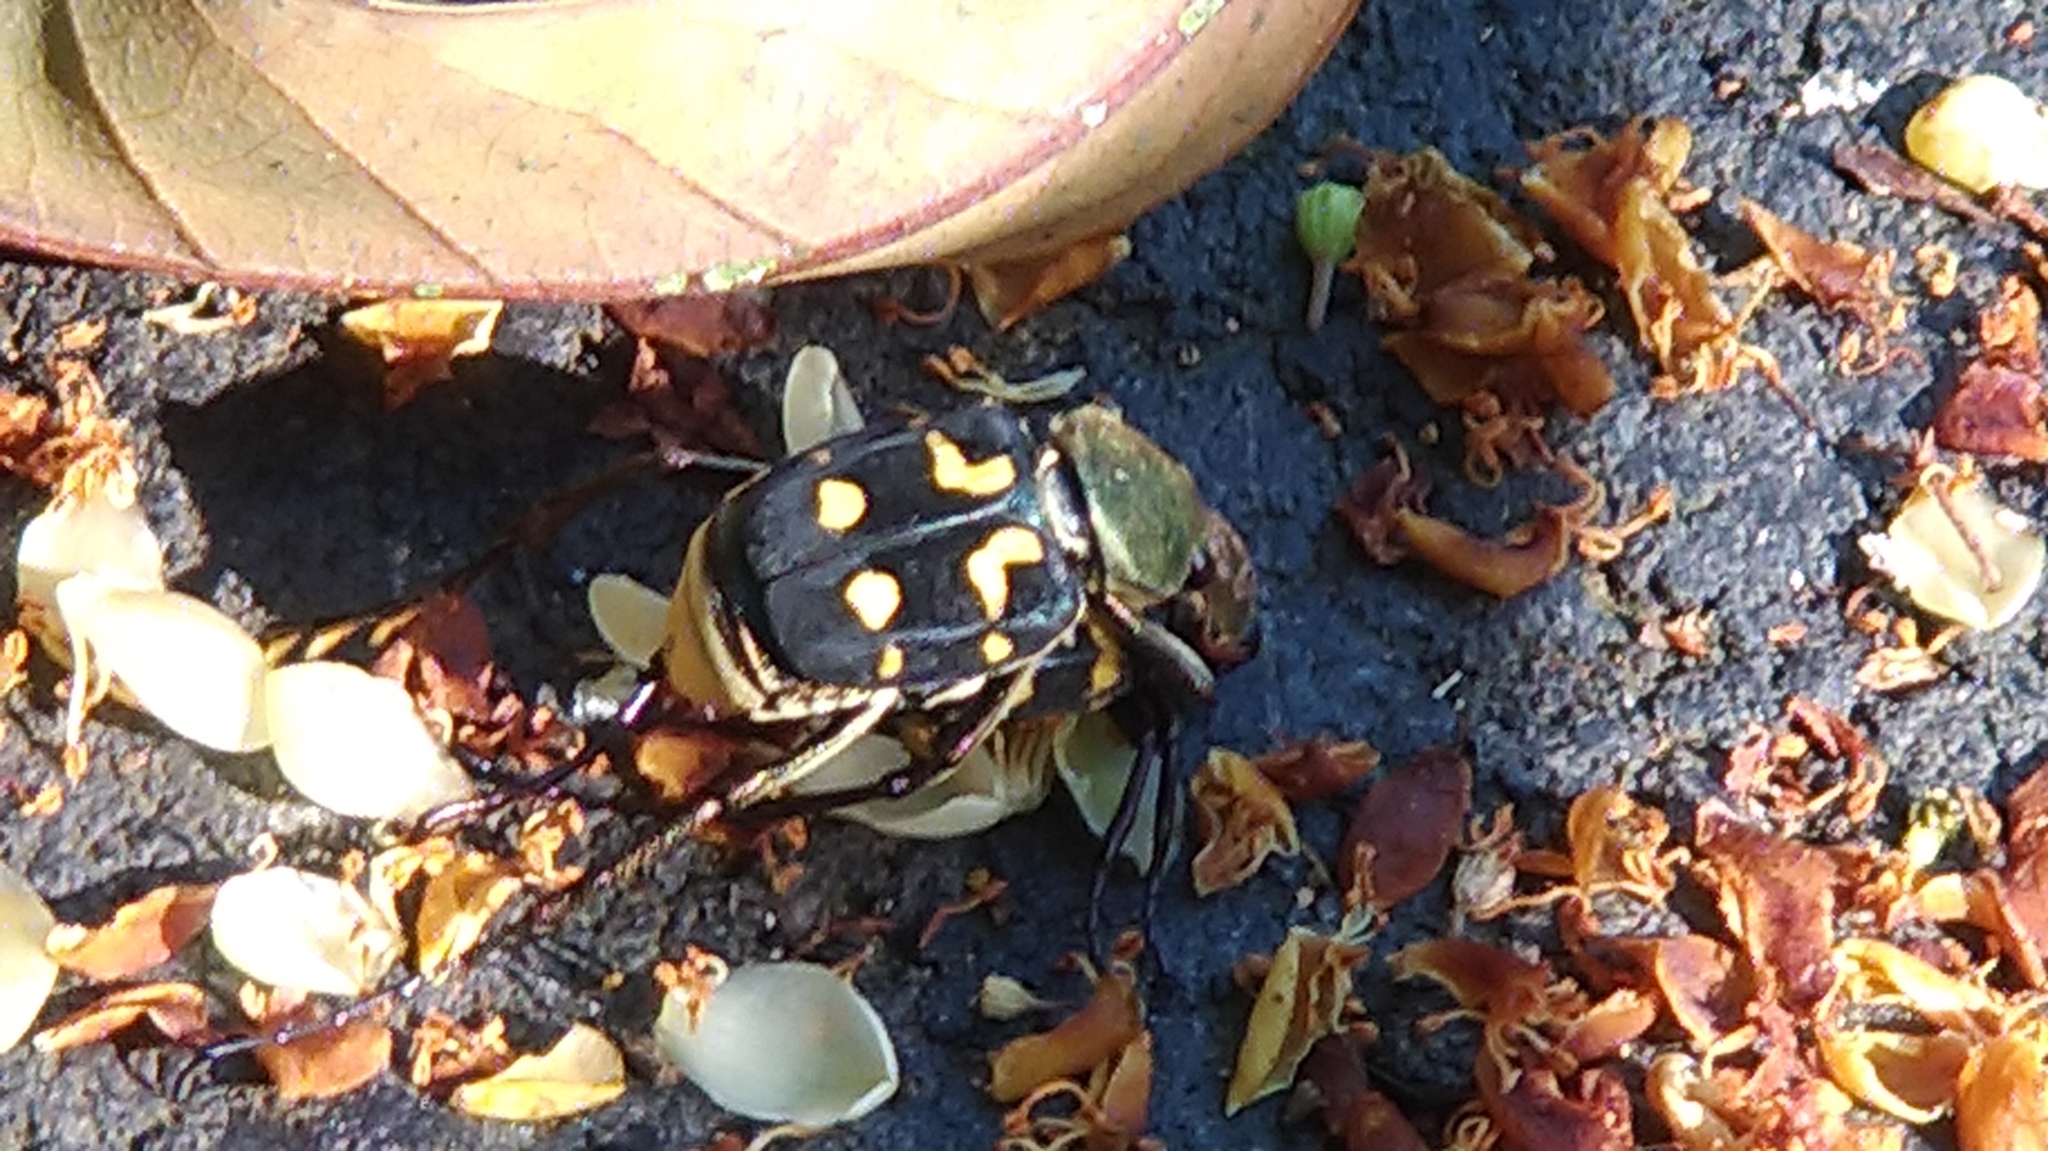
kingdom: Animalia
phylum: Arthropoda
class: Insecta
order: Coleoptera
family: Scarabaeidae
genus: Epitrichius
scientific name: Epitrichius cupreipes
